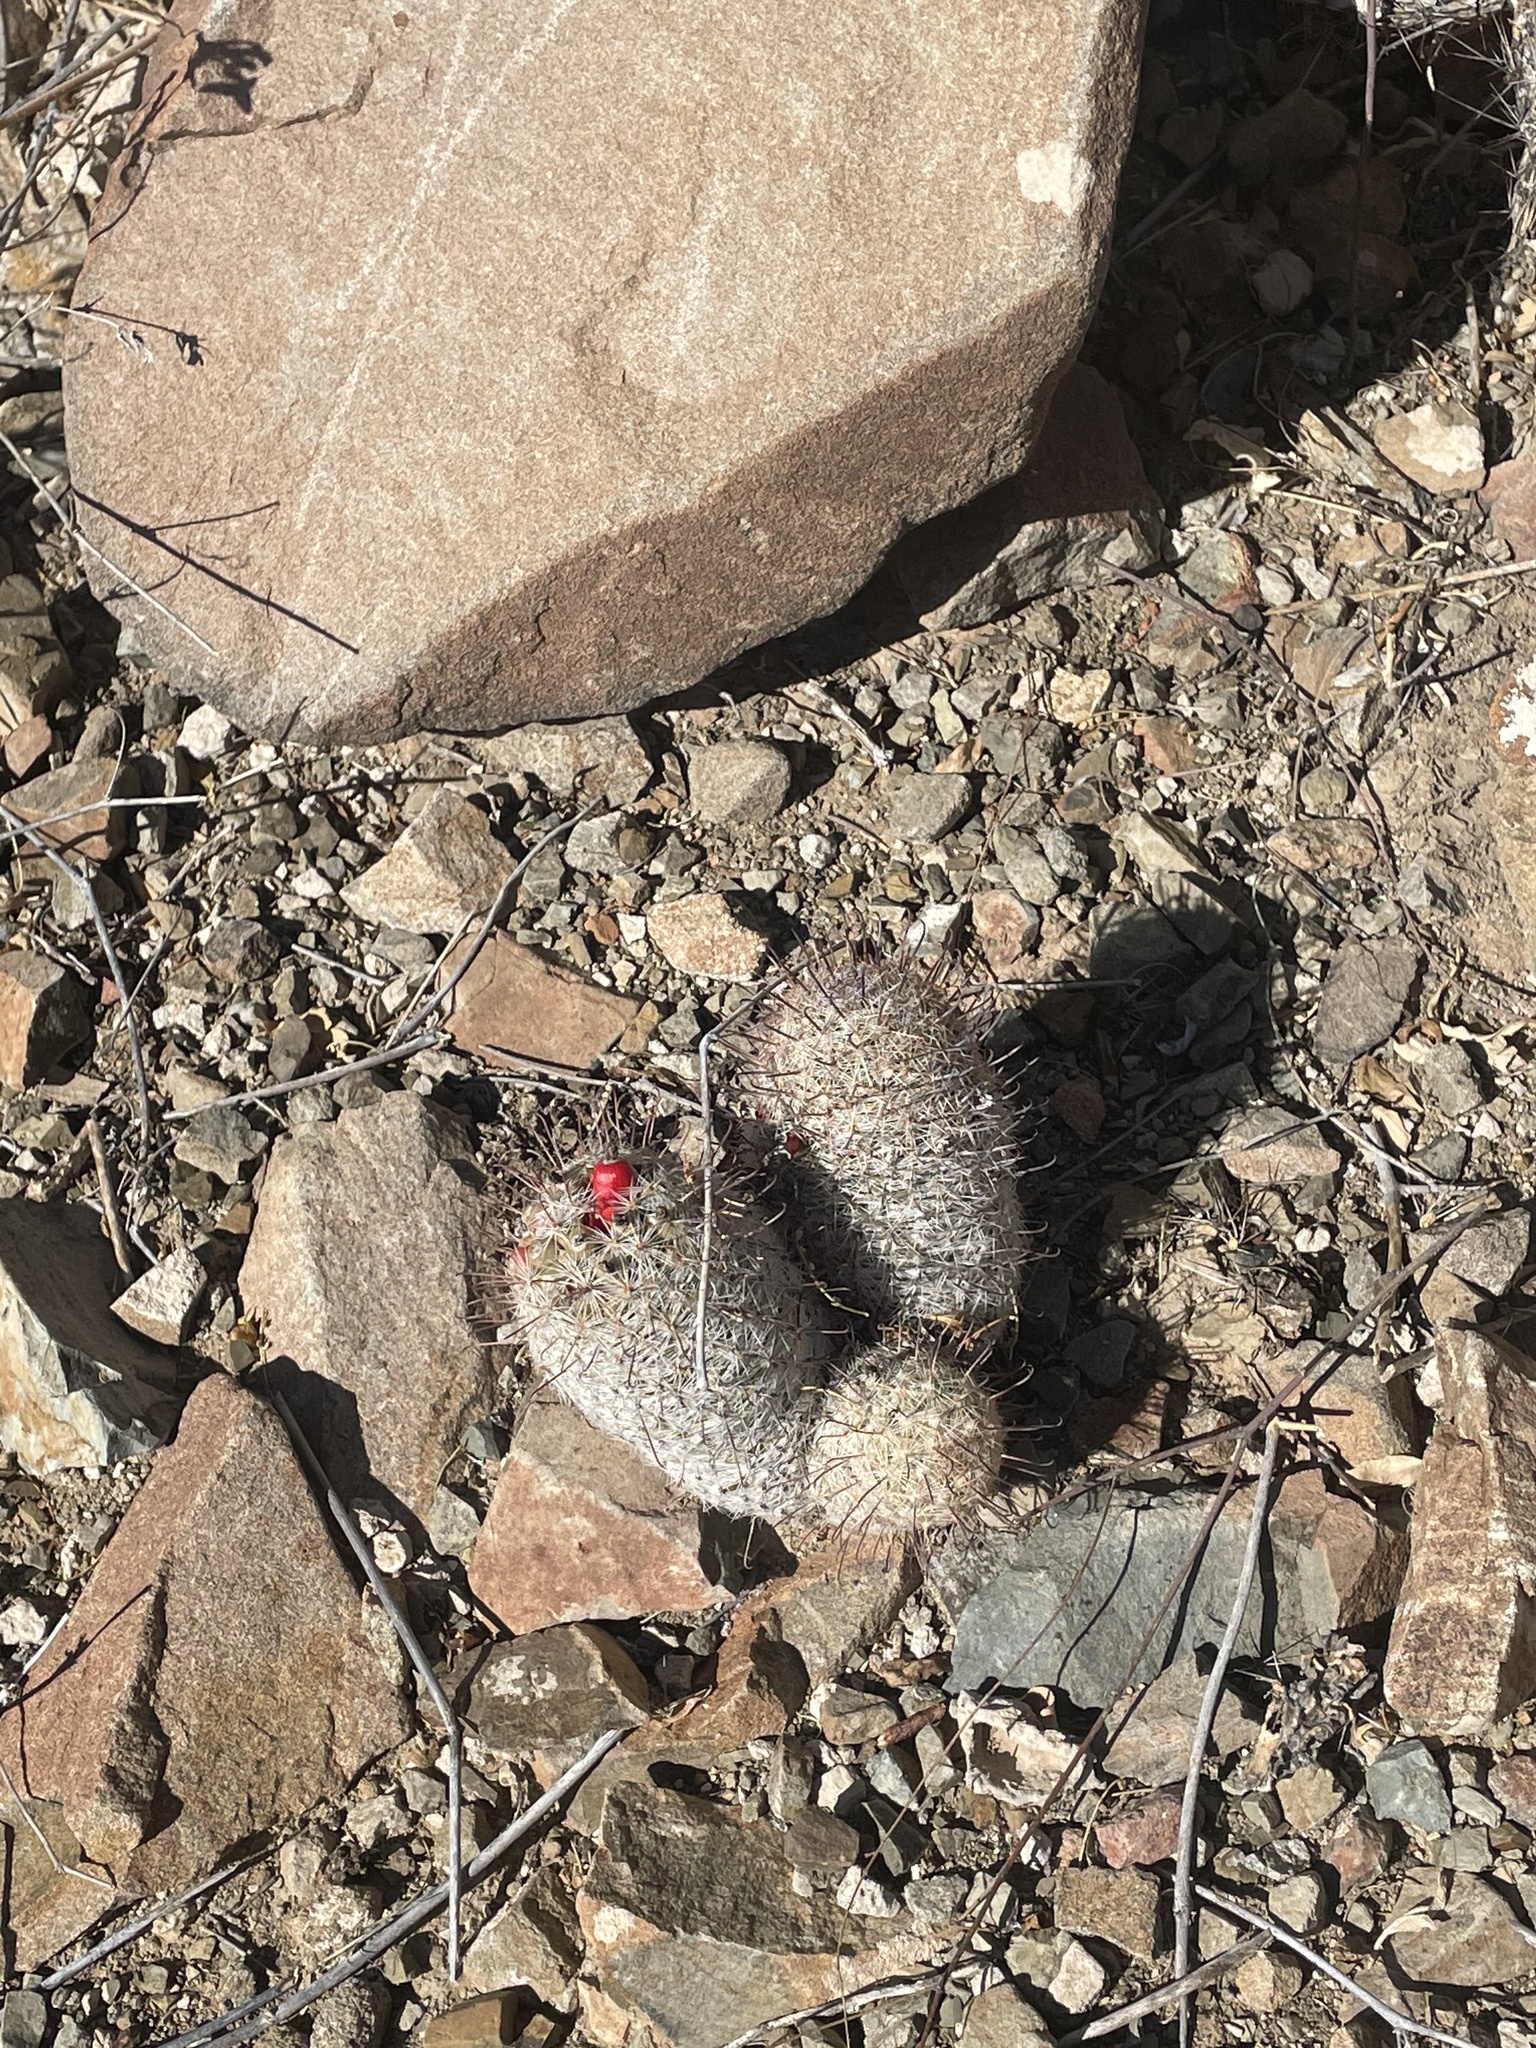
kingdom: Plantae
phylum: Tracheophyta
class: Magnoliopsida
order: Caryophyllales
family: Cactaceae
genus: Cochemiea
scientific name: Cochemiea grahamii
